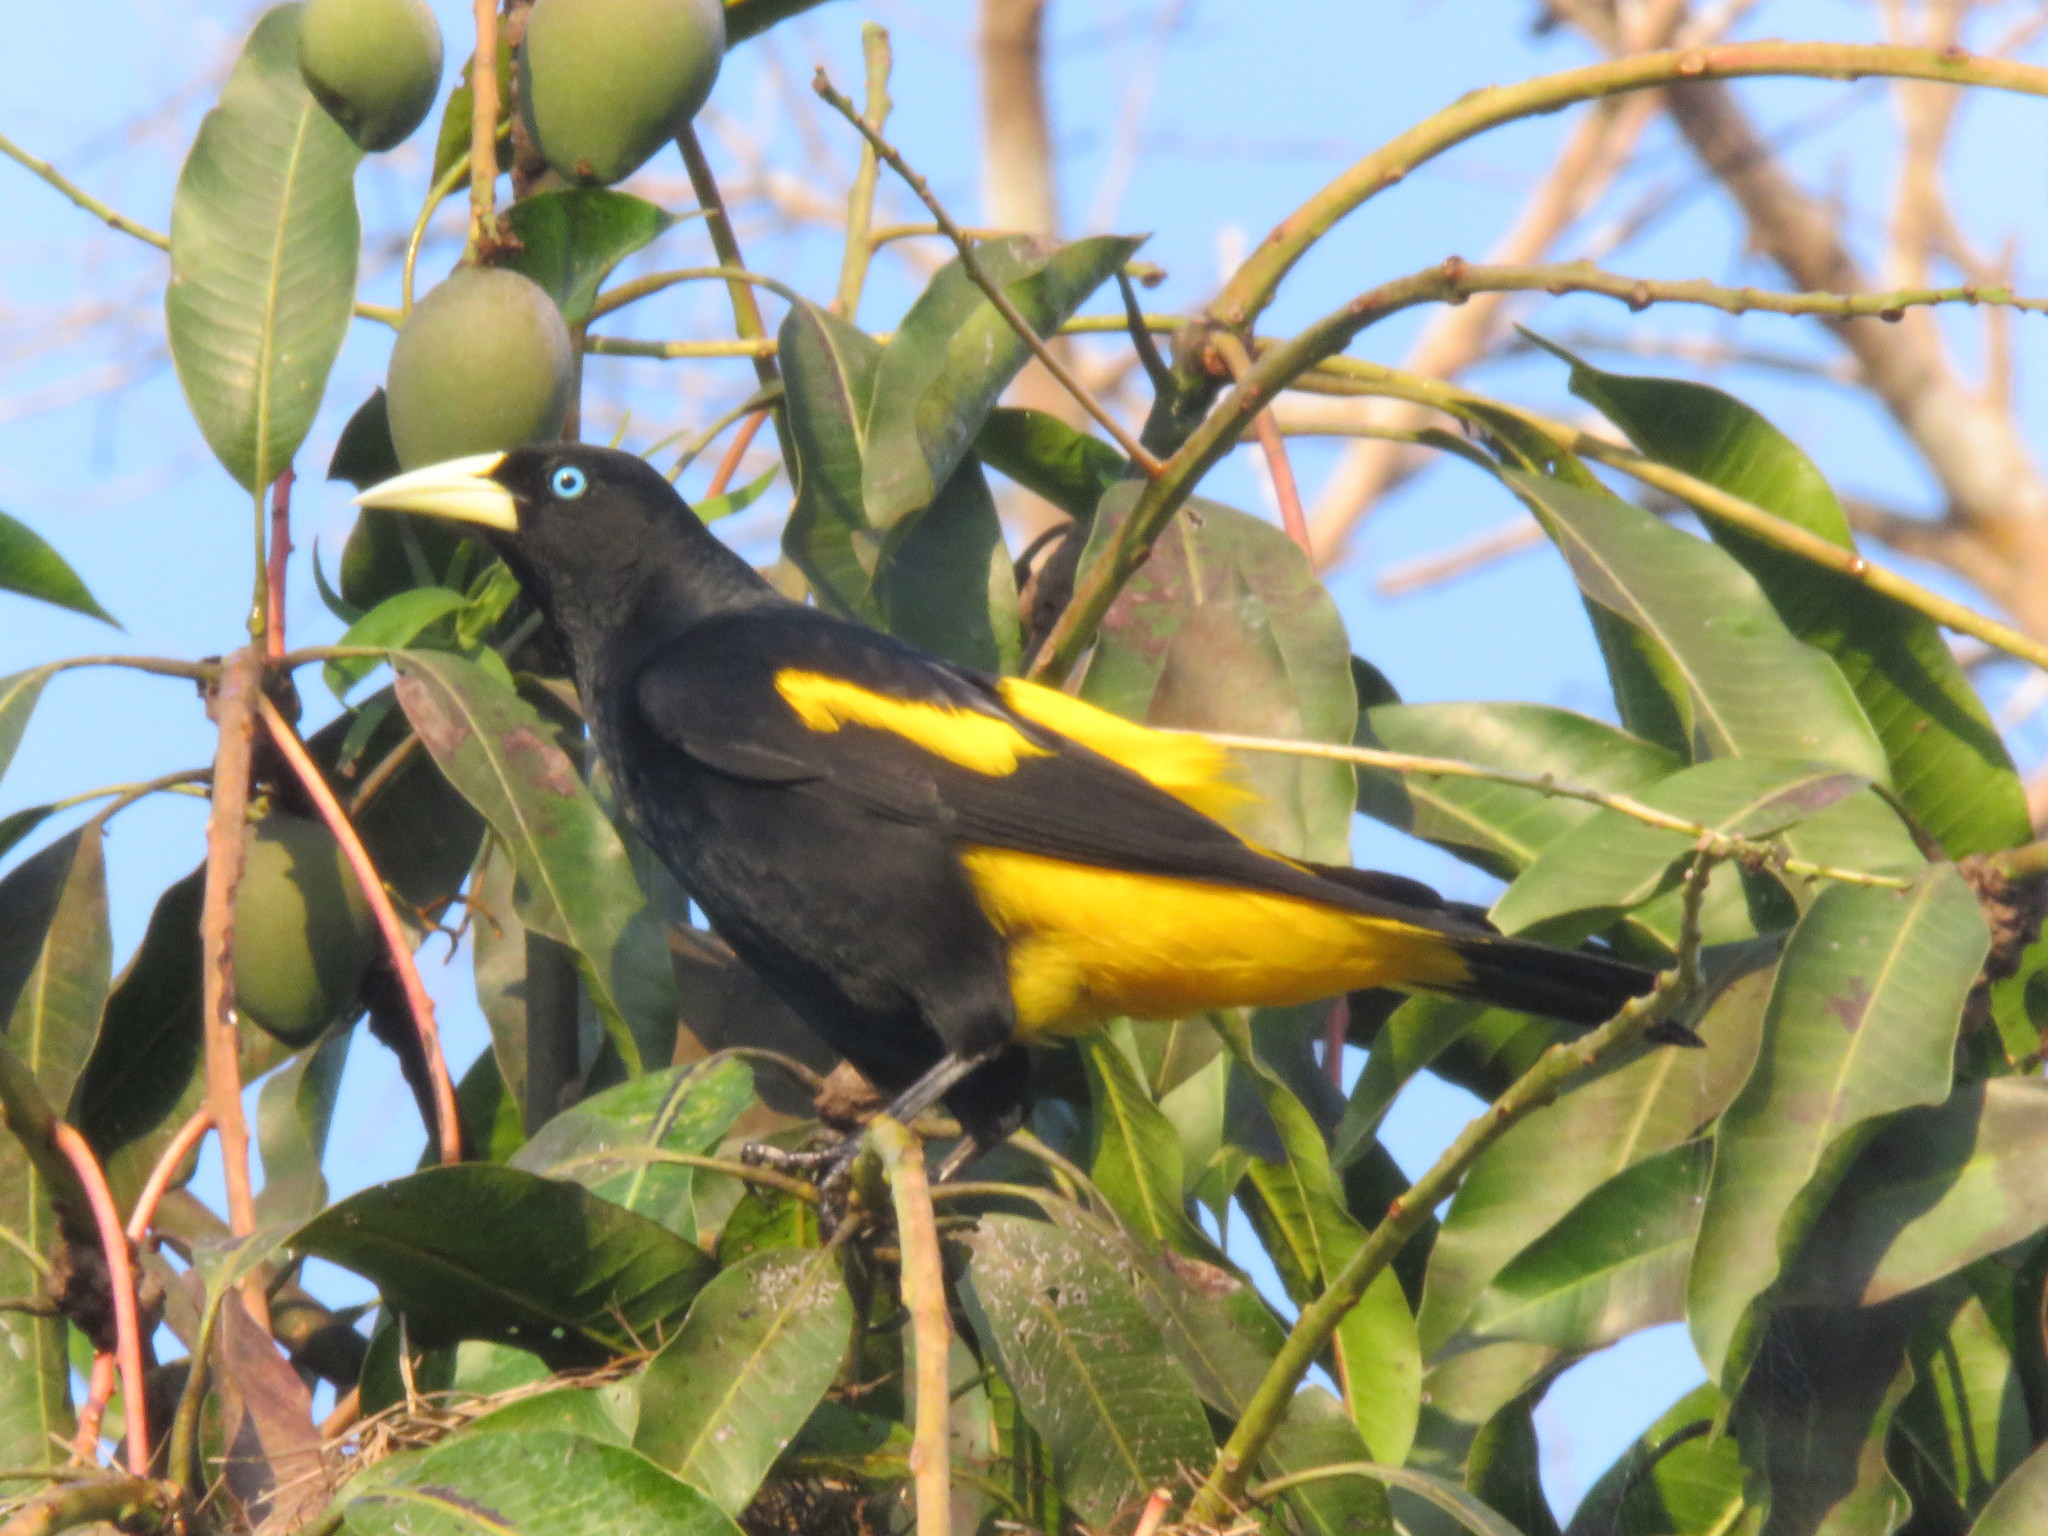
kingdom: Animalia
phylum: Chordata
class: Aves
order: Passeriformes
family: Icteridae
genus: Cacicus
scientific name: Cacicus cela
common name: Yellow-rumped cacique
